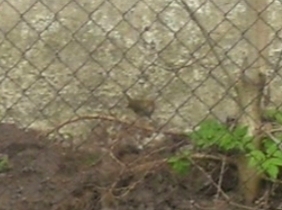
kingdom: Animalia
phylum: Chordata
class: Aves
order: Passeriformes
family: Parulidae
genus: Seiurus
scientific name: Seiurus aurocapilla
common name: Ovenbird
